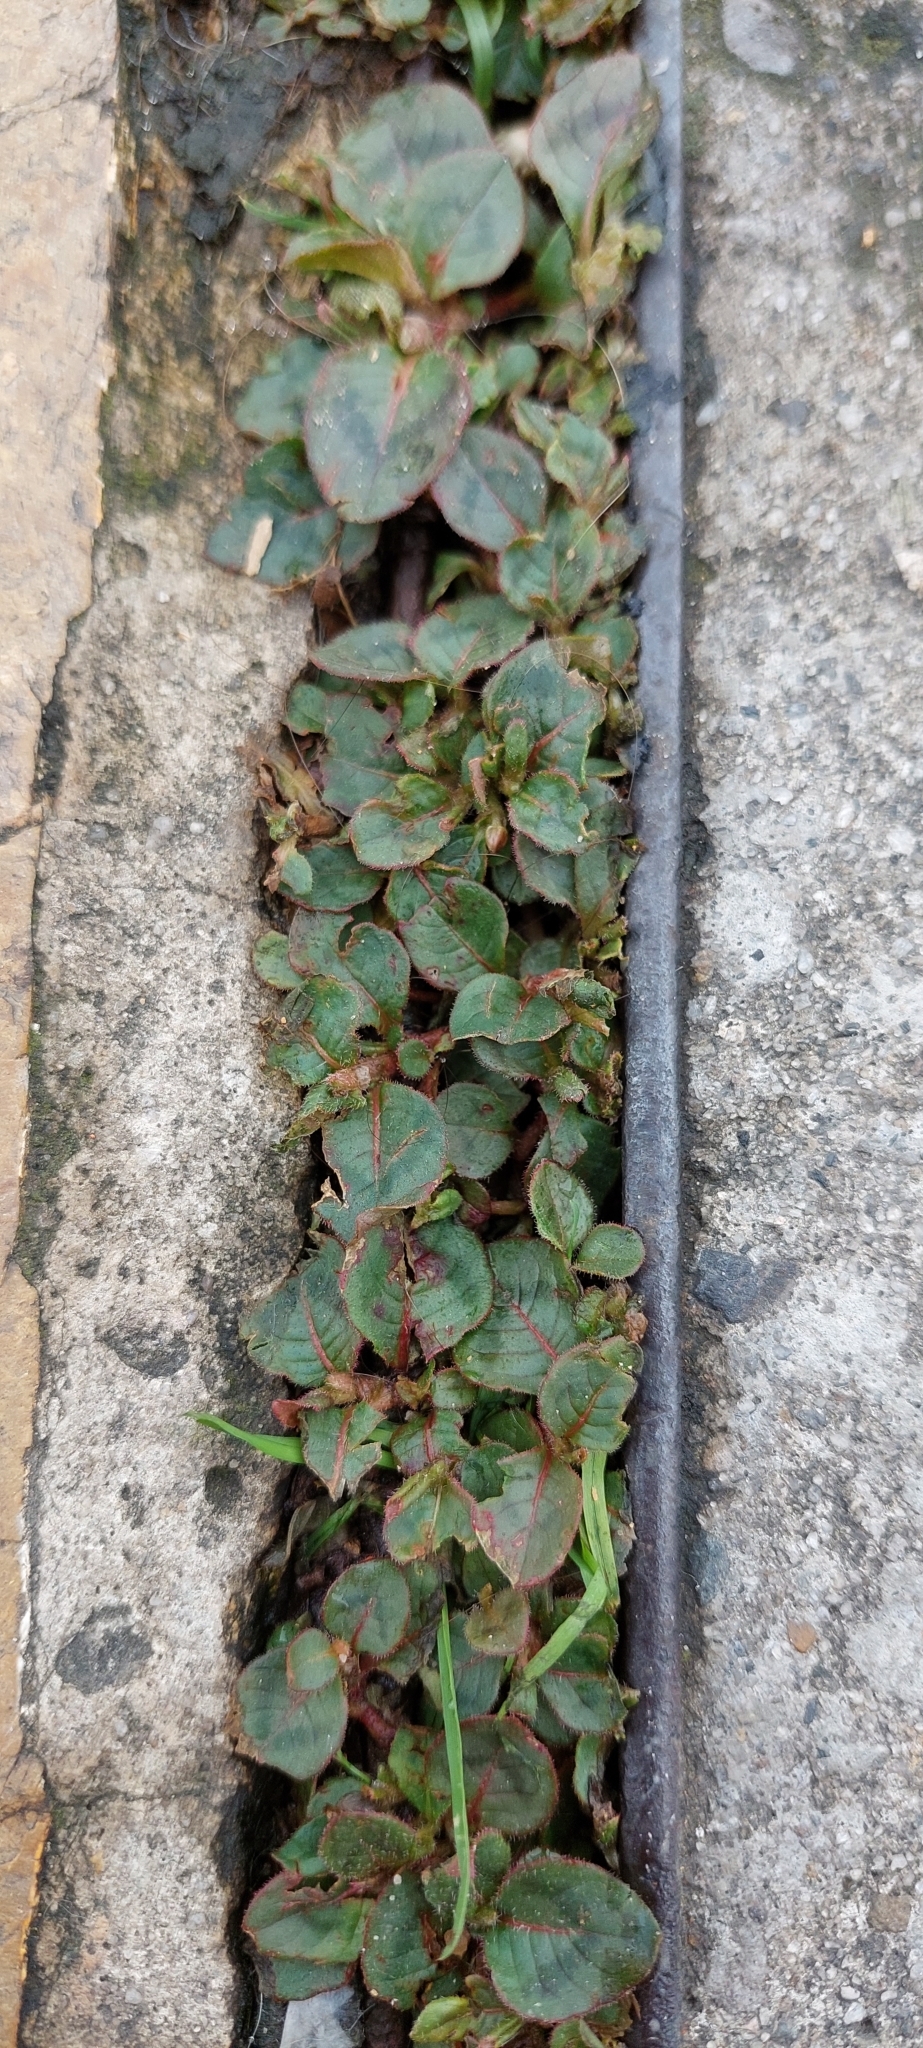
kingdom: Plantae
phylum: Tracheophyta
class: Magnoliopsida
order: Caryophyllales
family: Polygonaceae
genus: Persicaria
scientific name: Persicaria capitata
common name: Pinkhead smartweed
